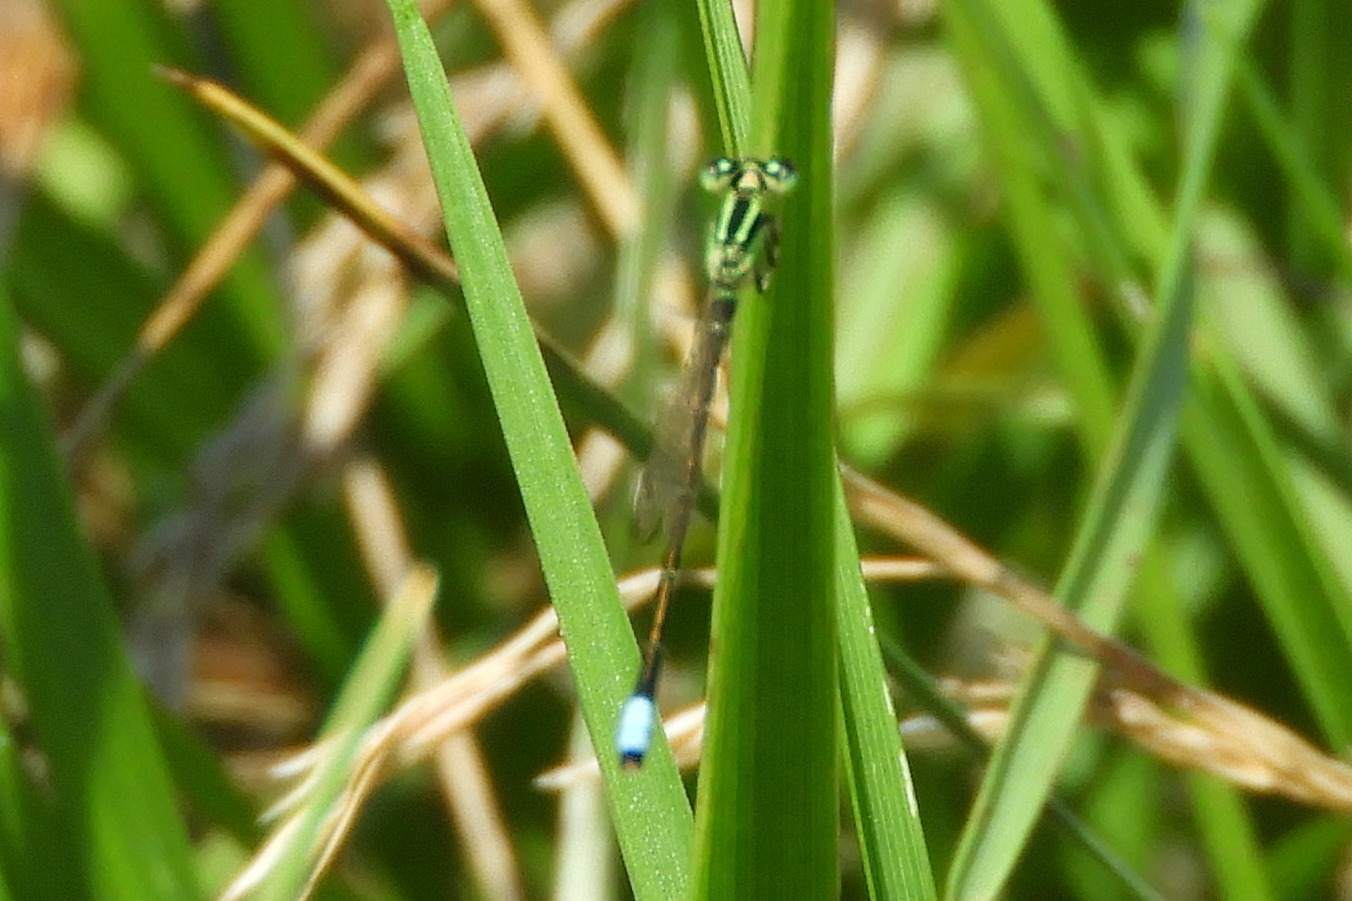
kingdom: Animalia
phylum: Arthropoda
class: Insecta
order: Odonata
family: Coenagrionidae
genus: Ischnura
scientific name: Ischnura verticalis
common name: Eastern forktail
